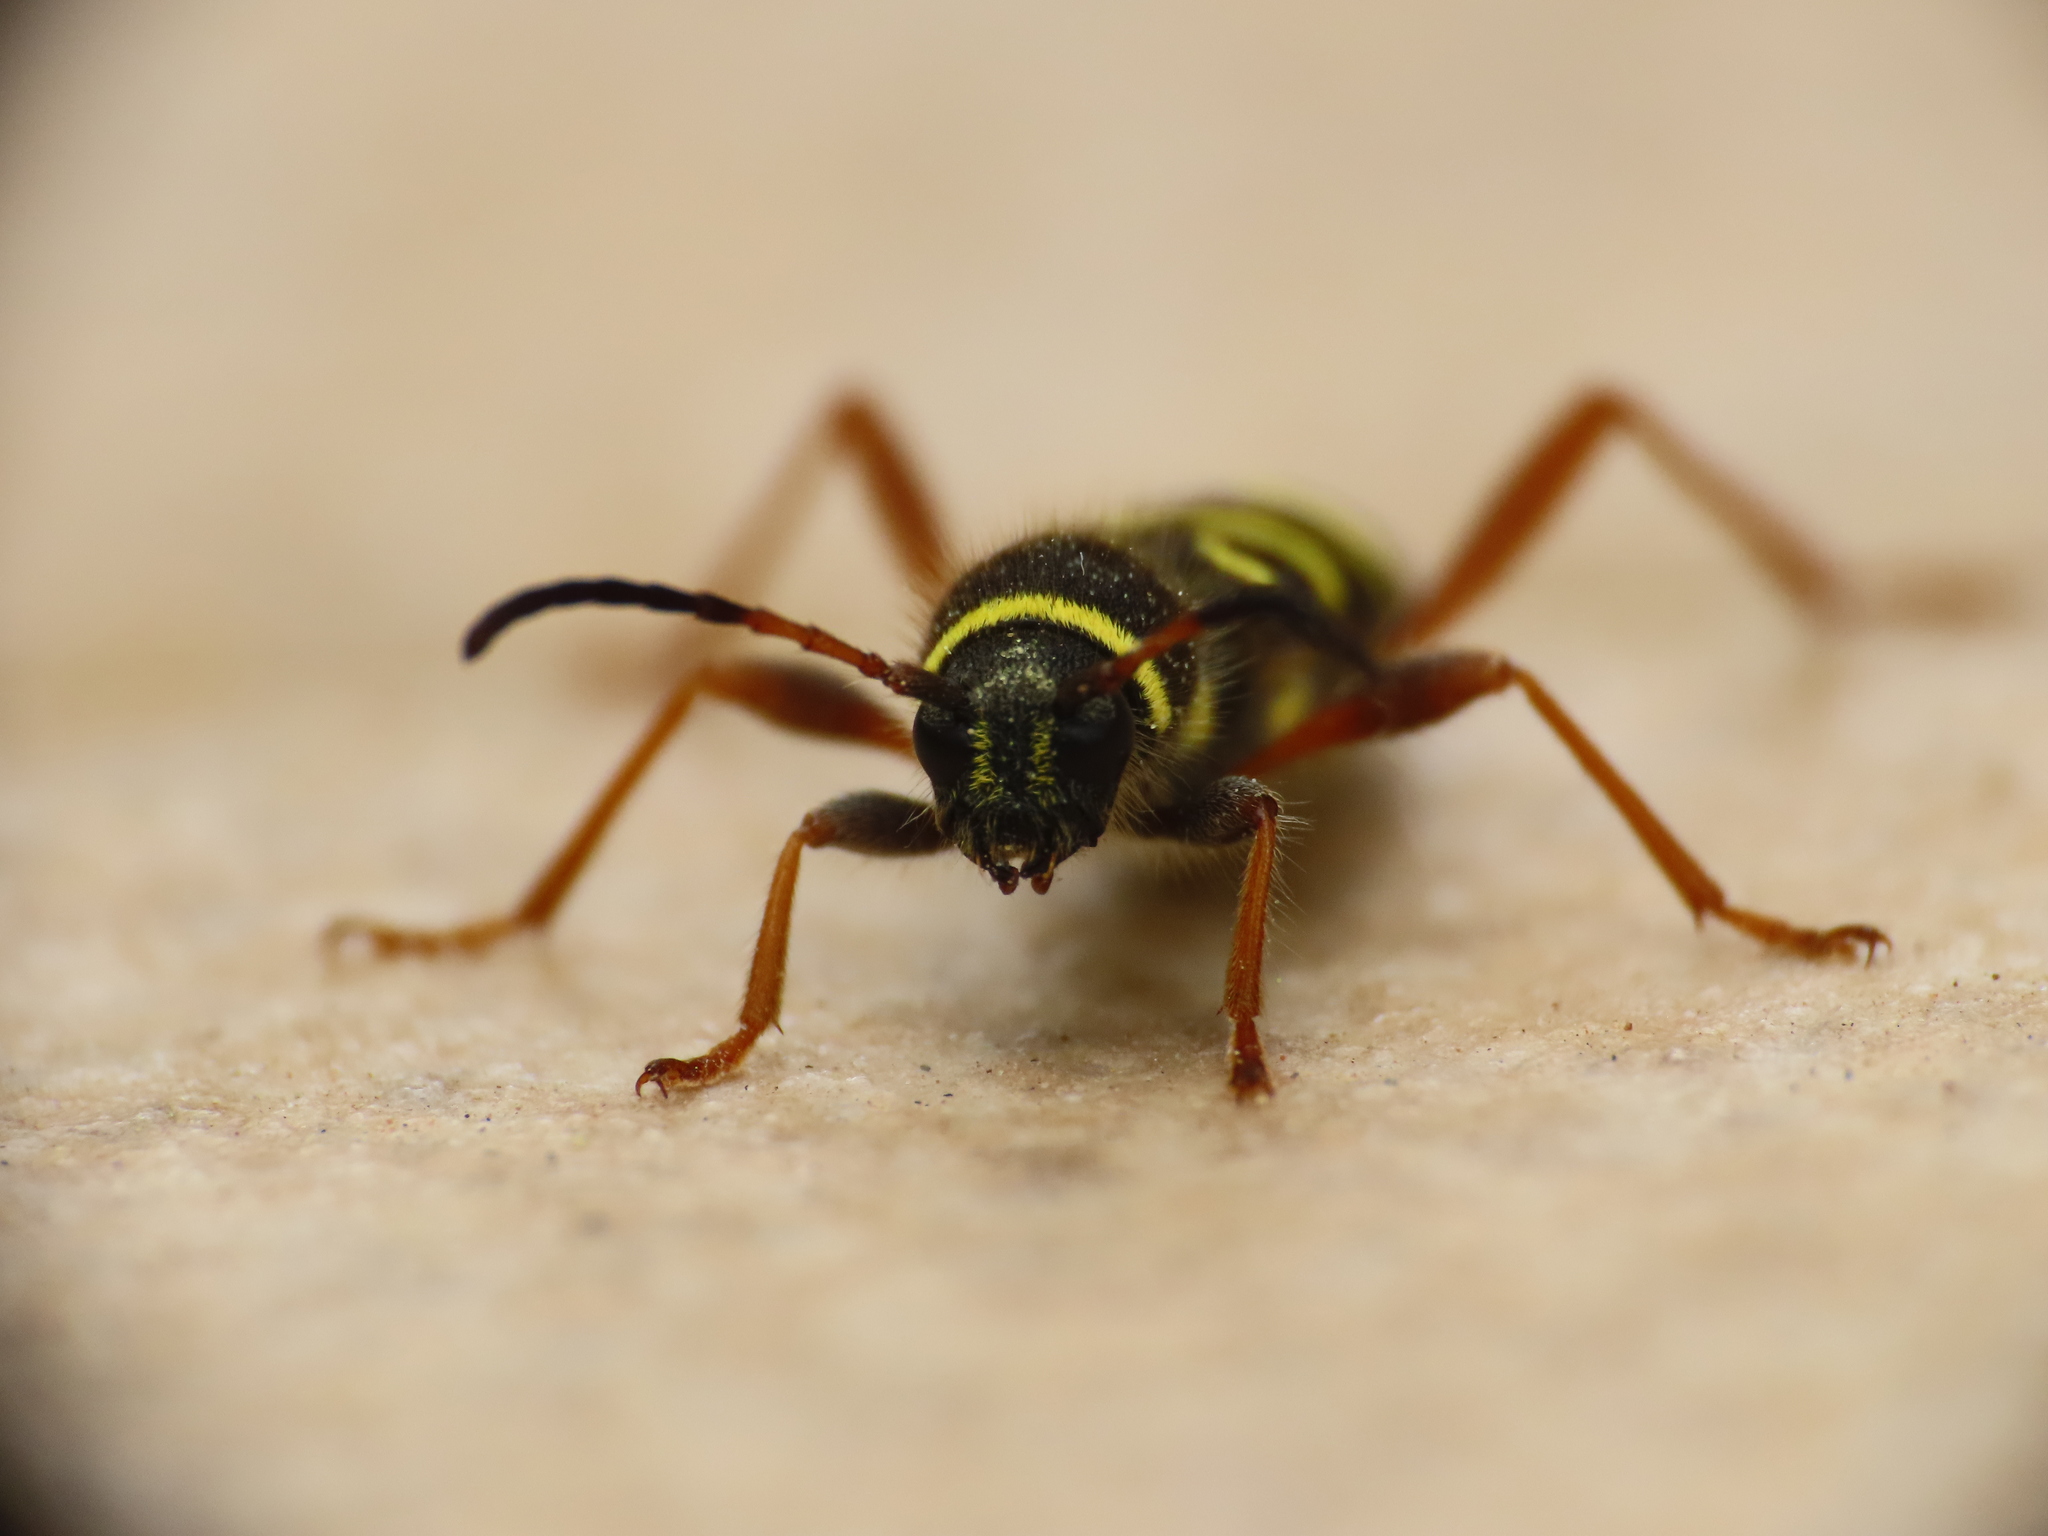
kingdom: Animalia
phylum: Arthropoda
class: Insecta
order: Coleoptera
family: Cerambycidae
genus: Clytus
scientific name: Clytus arietis
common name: Wasp beetle
